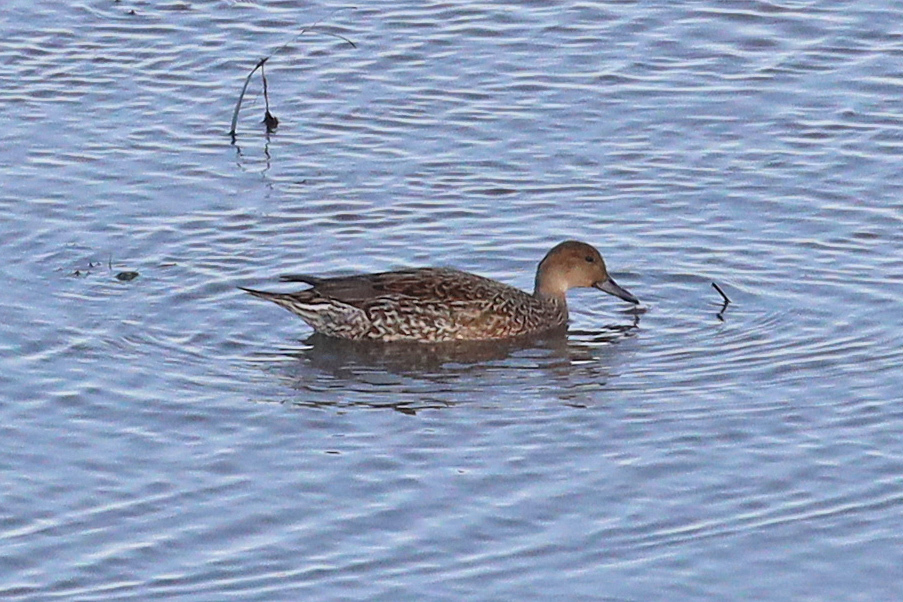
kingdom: Animalia
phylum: Chordata
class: Aves
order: Anseriformes
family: Anatidae
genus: Anas
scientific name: Anas acuta
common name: Northern pintail
